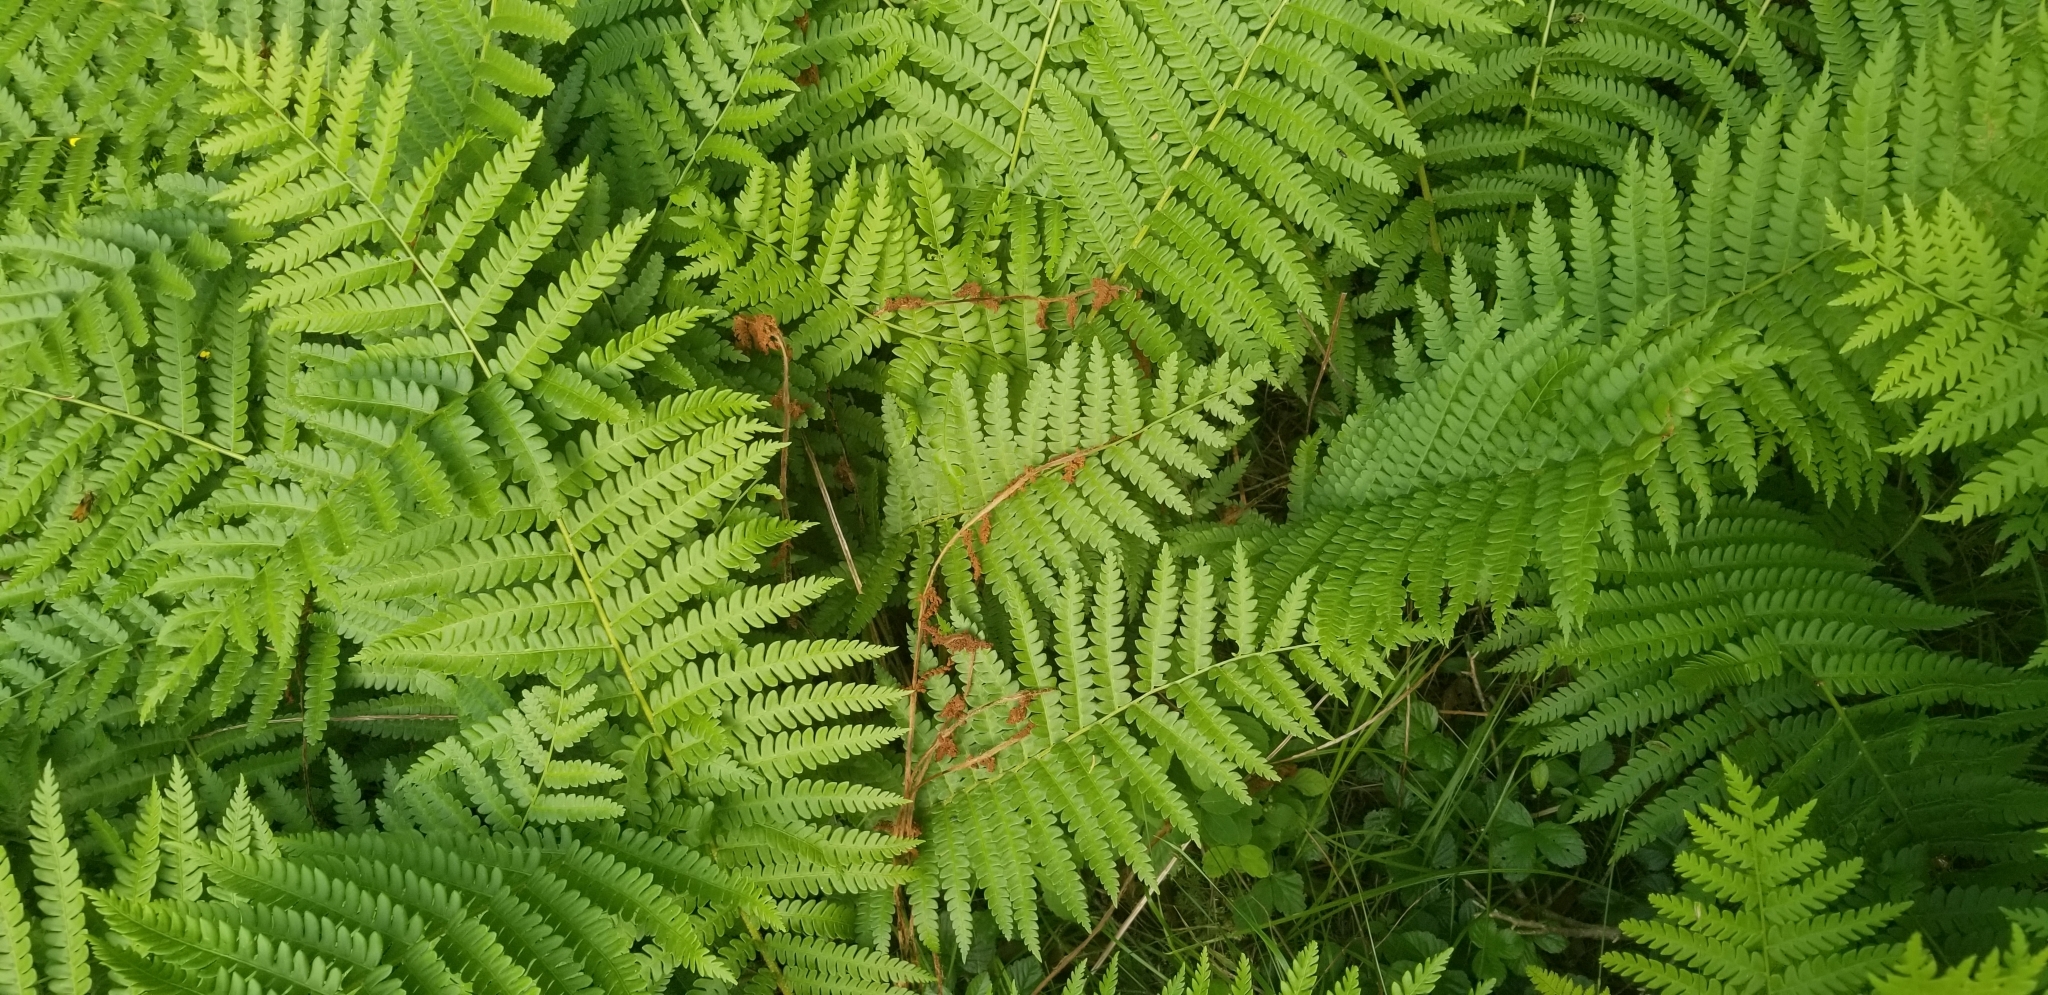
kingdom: Plantae
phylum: Tracheophyta
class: Polypodiopsida
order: Osmundales
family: Osmundaceae
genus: Osmundastrum
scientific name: Osmundastrum cinnamomeum
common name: Cinnamon fern
